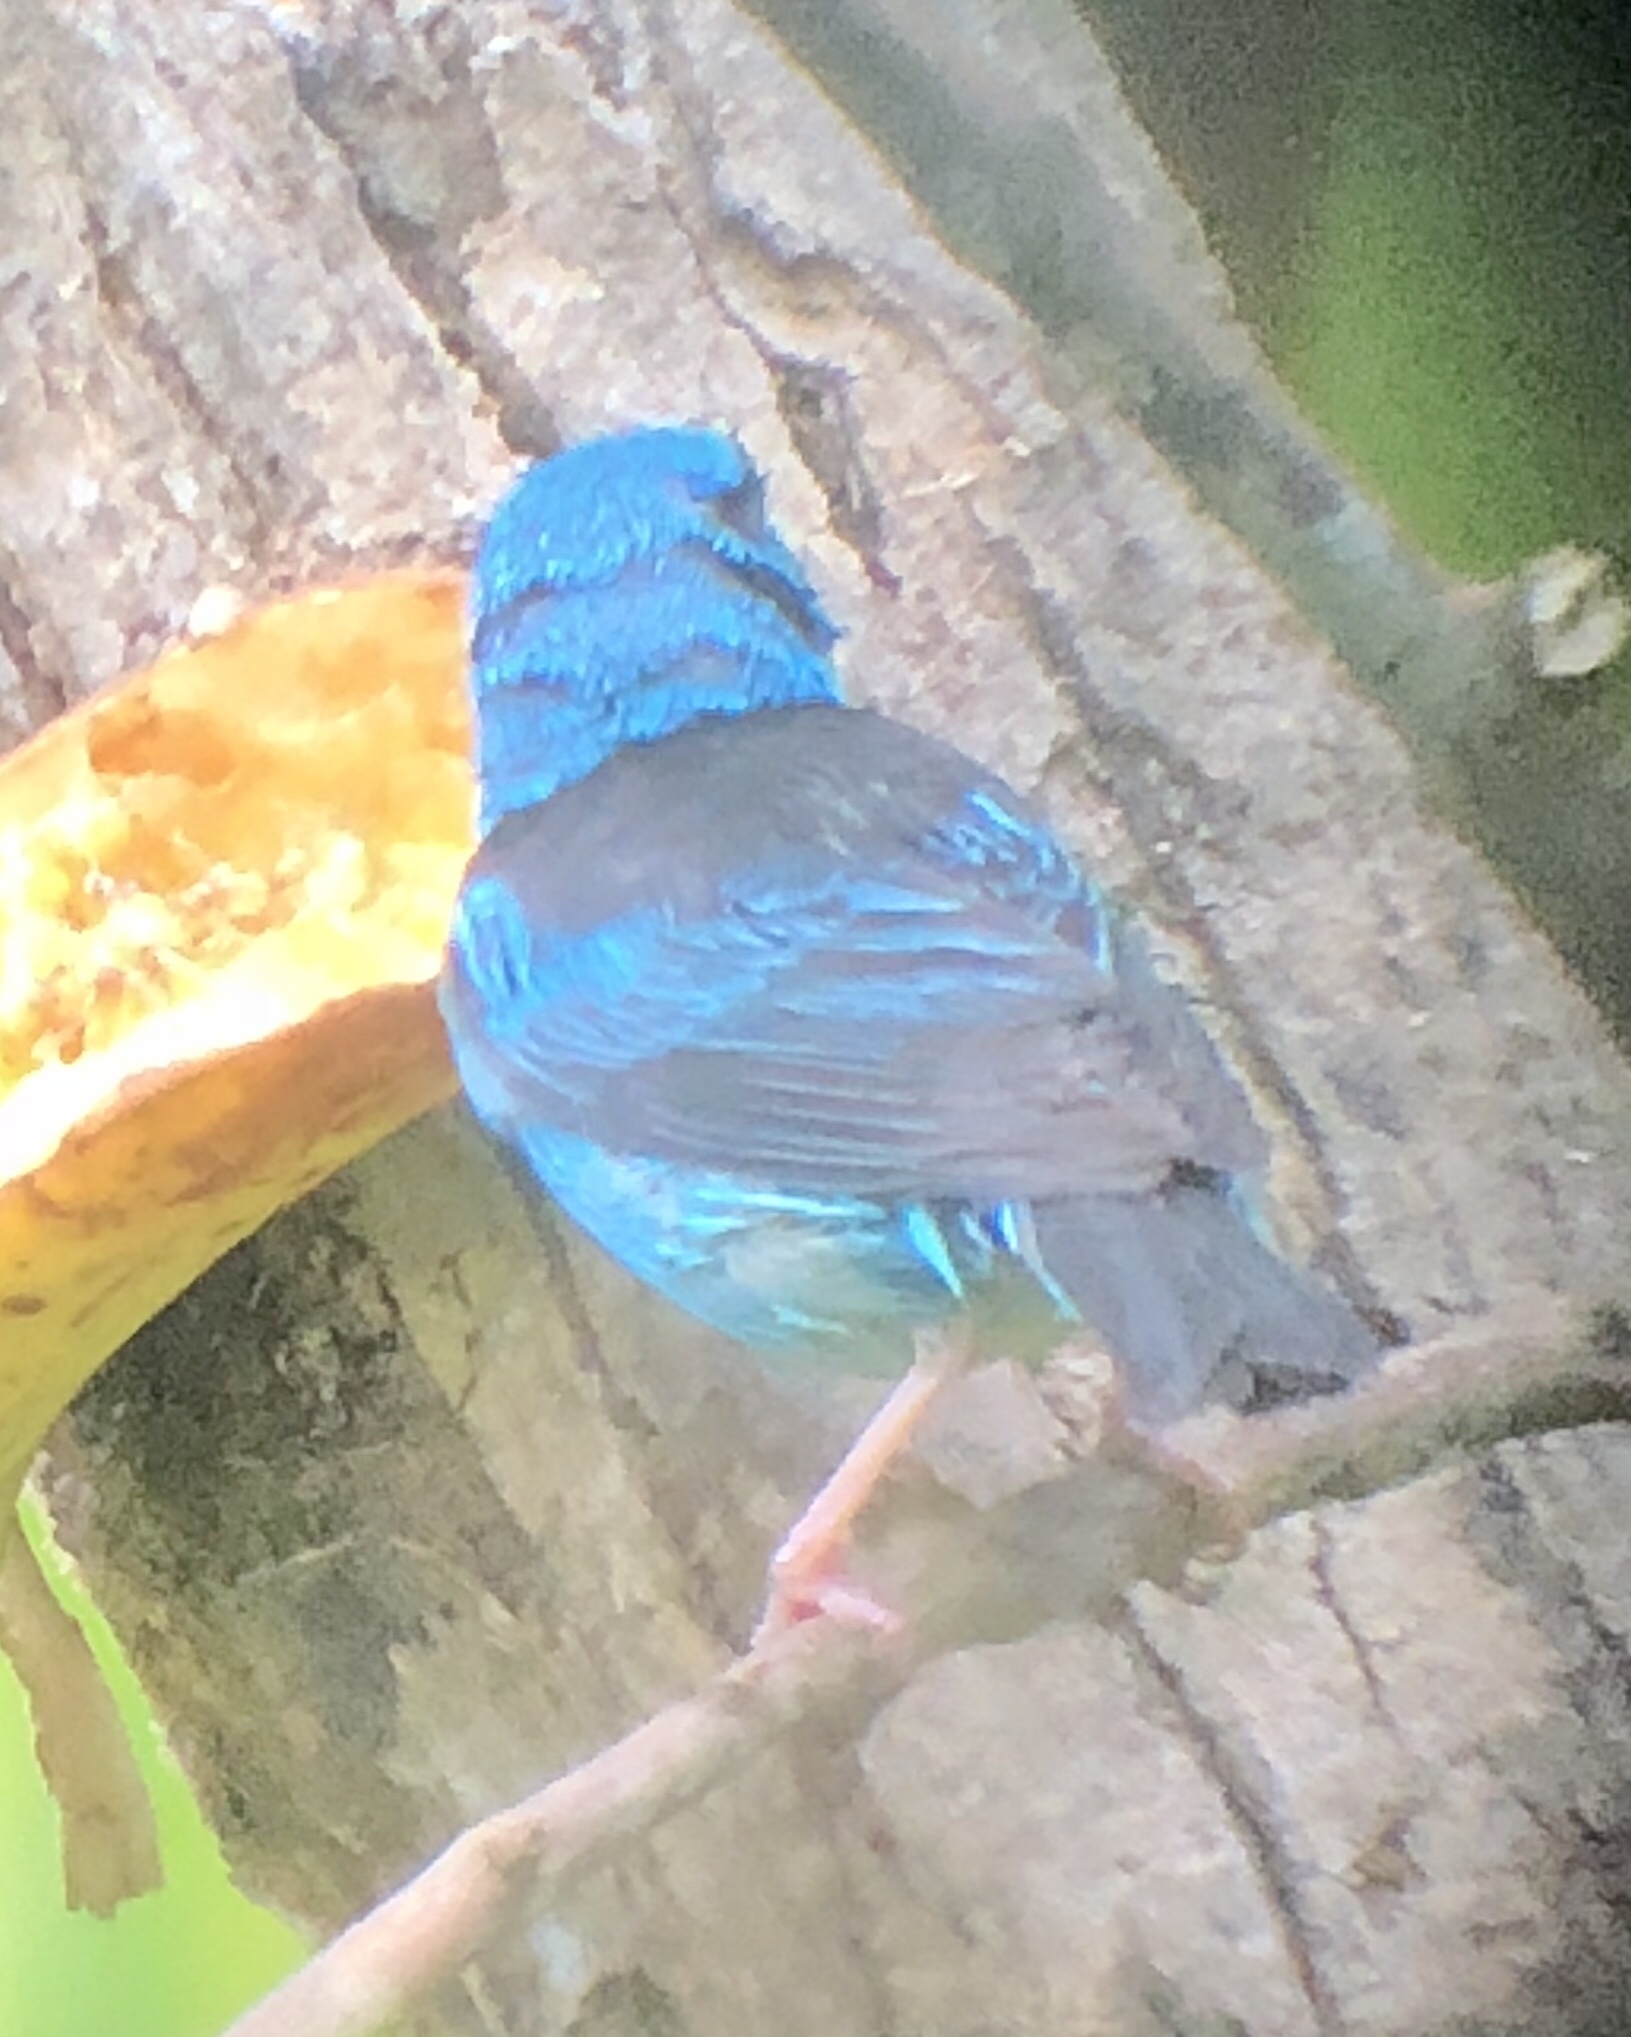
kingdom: Animalia
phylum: Chordata
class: Aves
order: Passeriformes
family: Thraupidae
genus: Dacnis
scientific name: Dacnis cayana
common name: Blue dacnis
